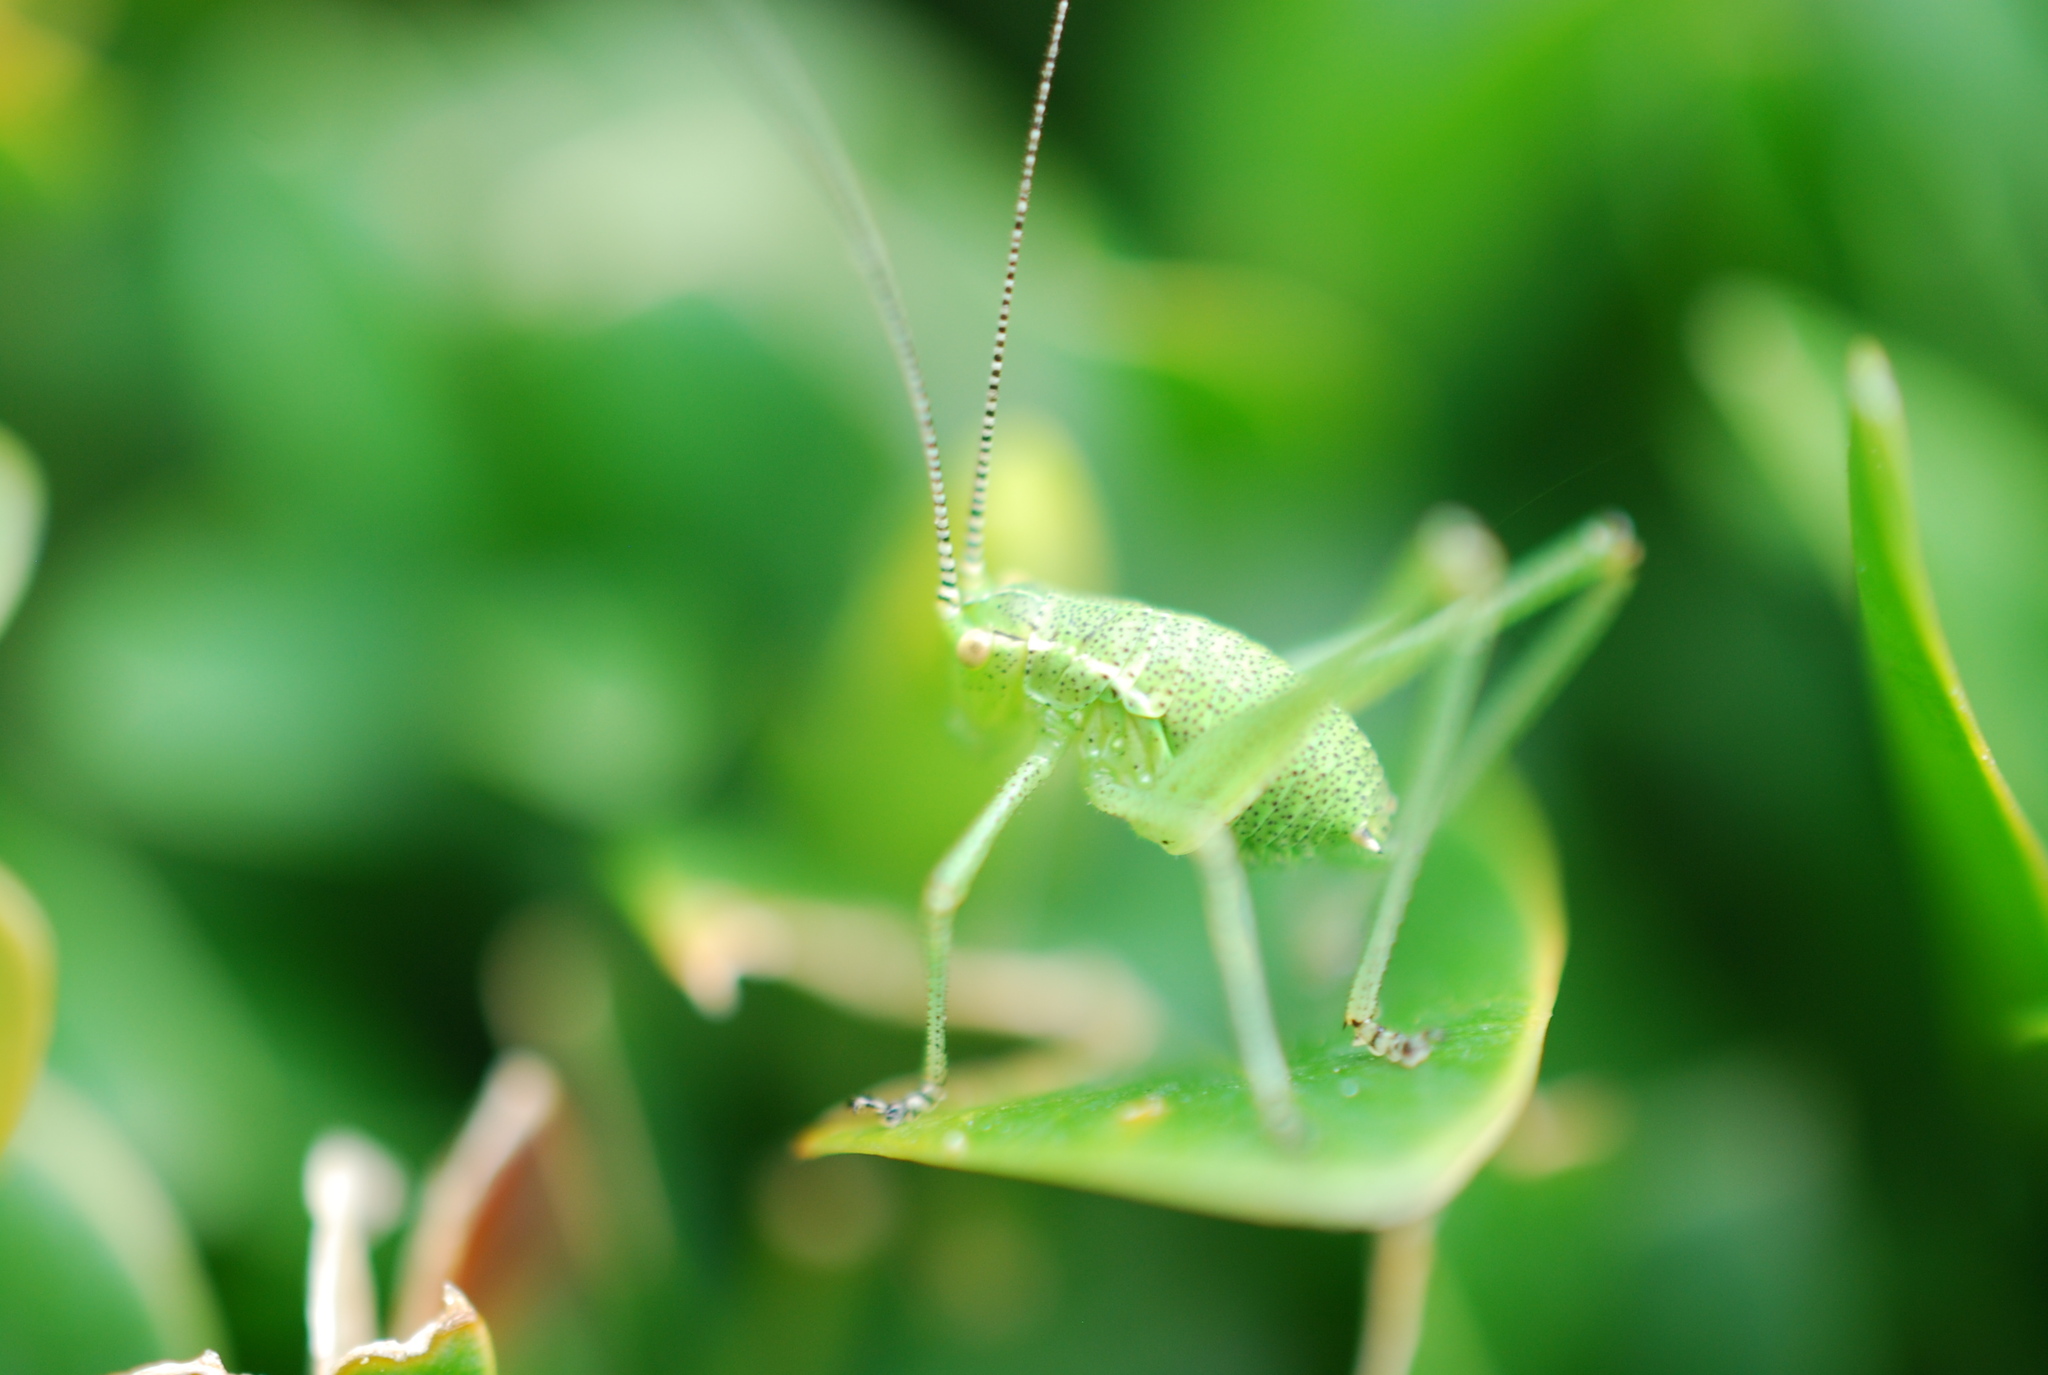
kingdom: Animalia
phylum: Arthropoda
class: Insecta
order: Orthoptera
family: Tettigoniidae
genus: Leptophyes
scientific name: Leptophyes punctatissima
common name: Speckled bush-cricket
